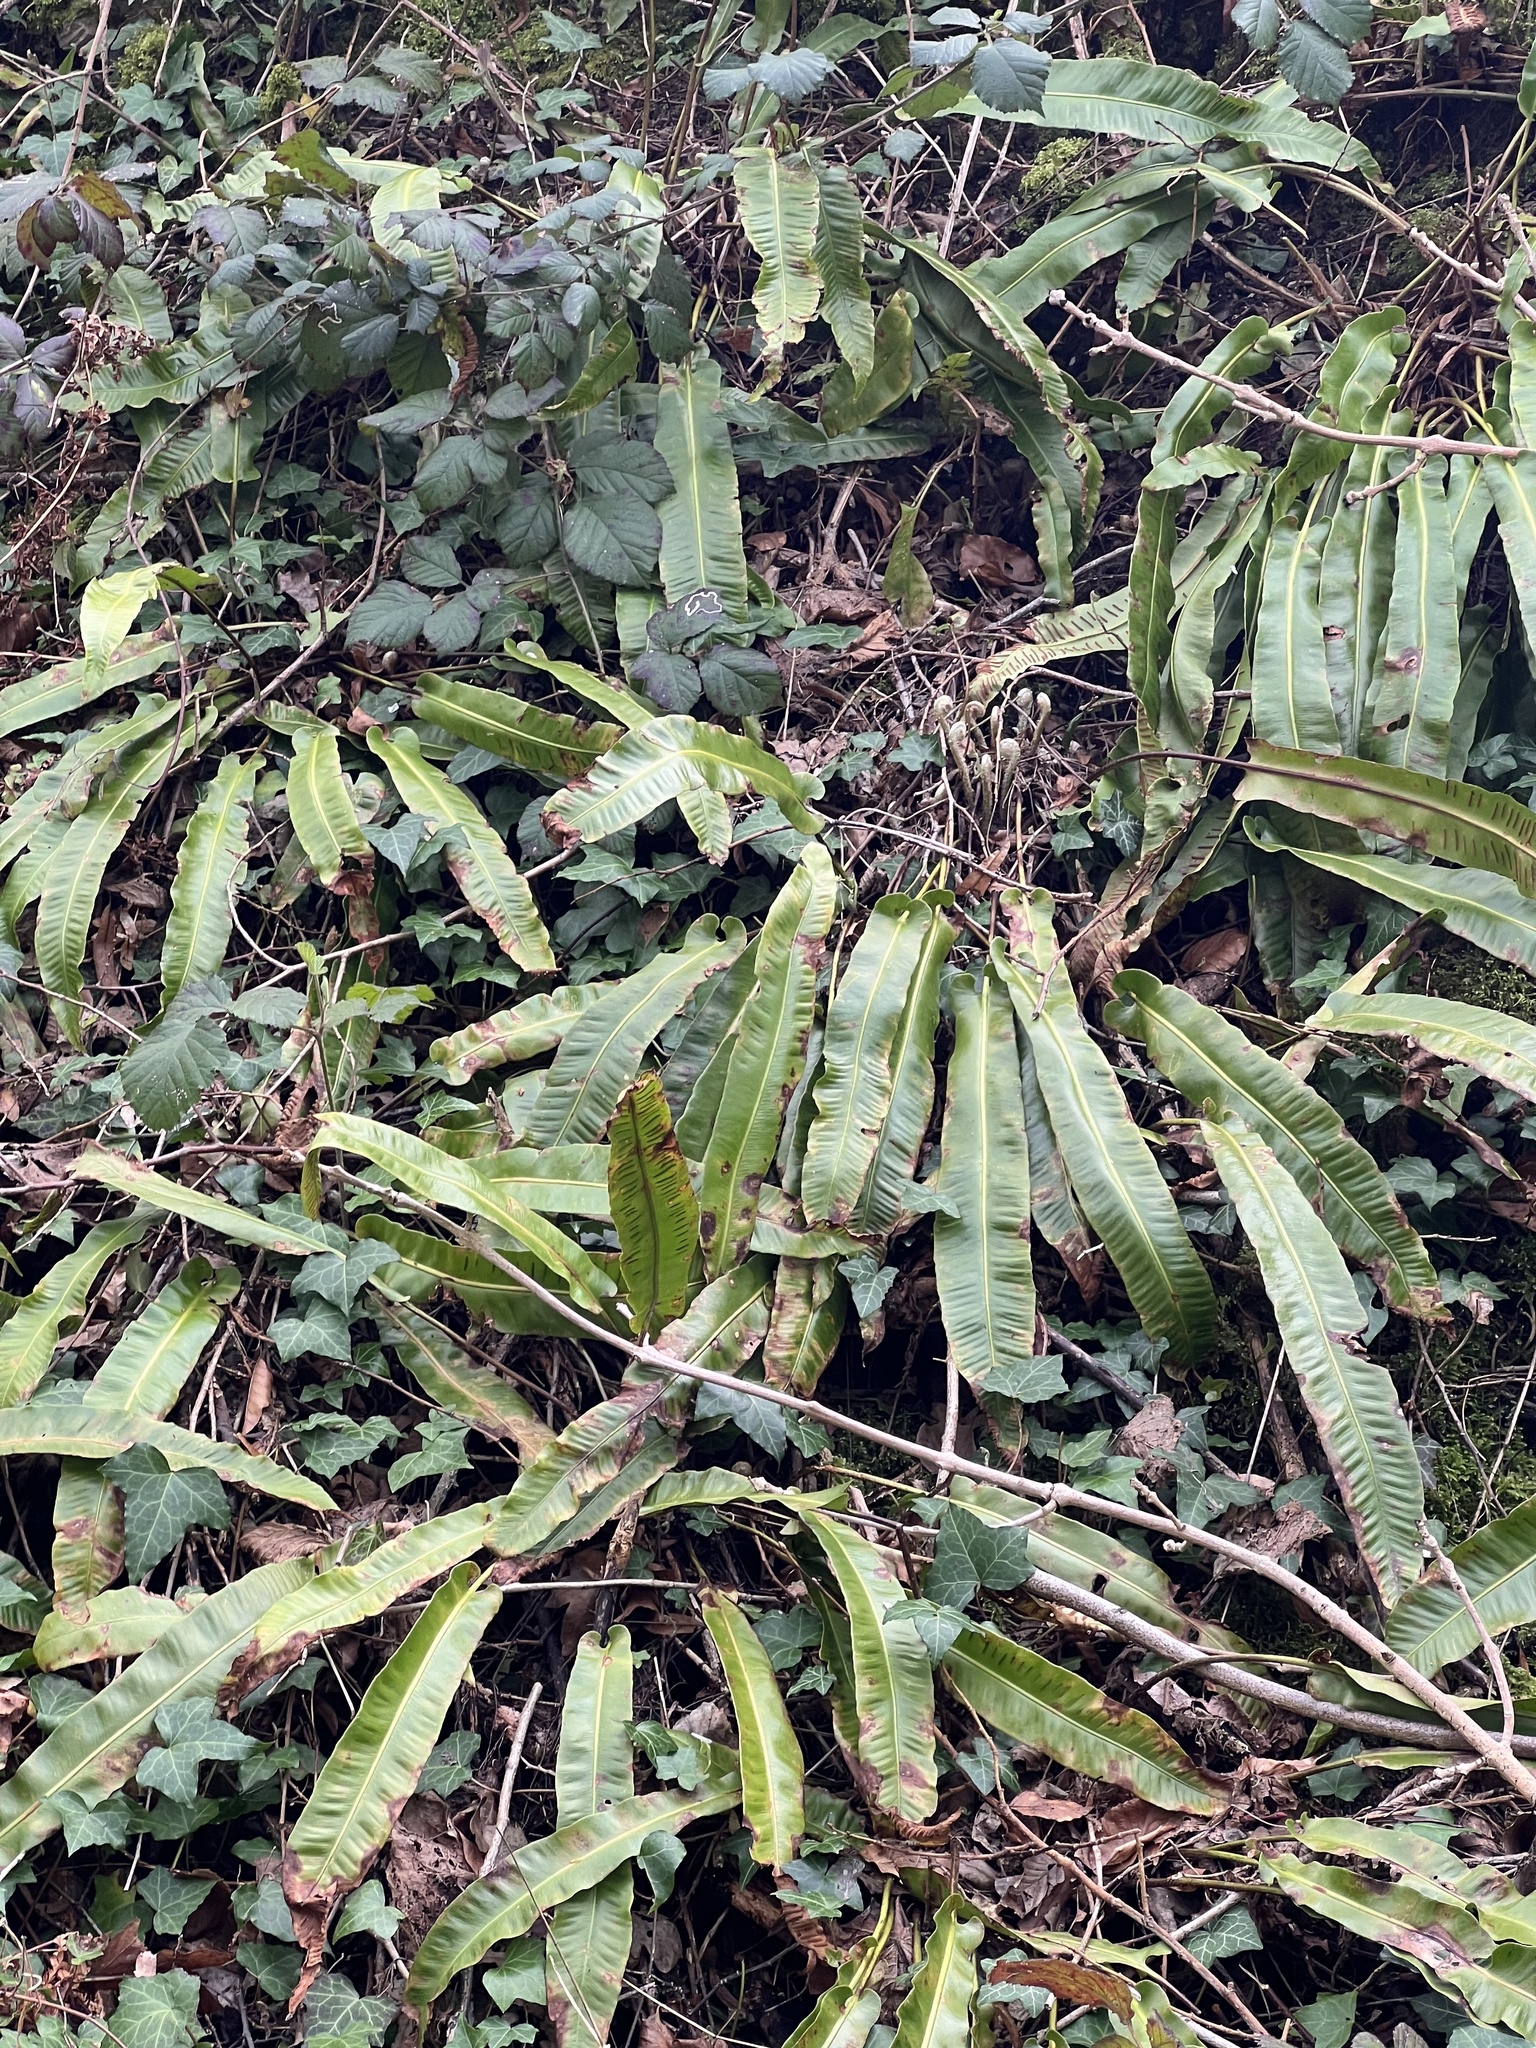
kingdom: Plantae
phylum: Tracheophyta
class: Polypodiopsida
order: Polypodiales
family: Aspleniaceae
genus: Asplenium
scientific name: Asplenium scolopendrium
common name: Hart's-tongue fern
